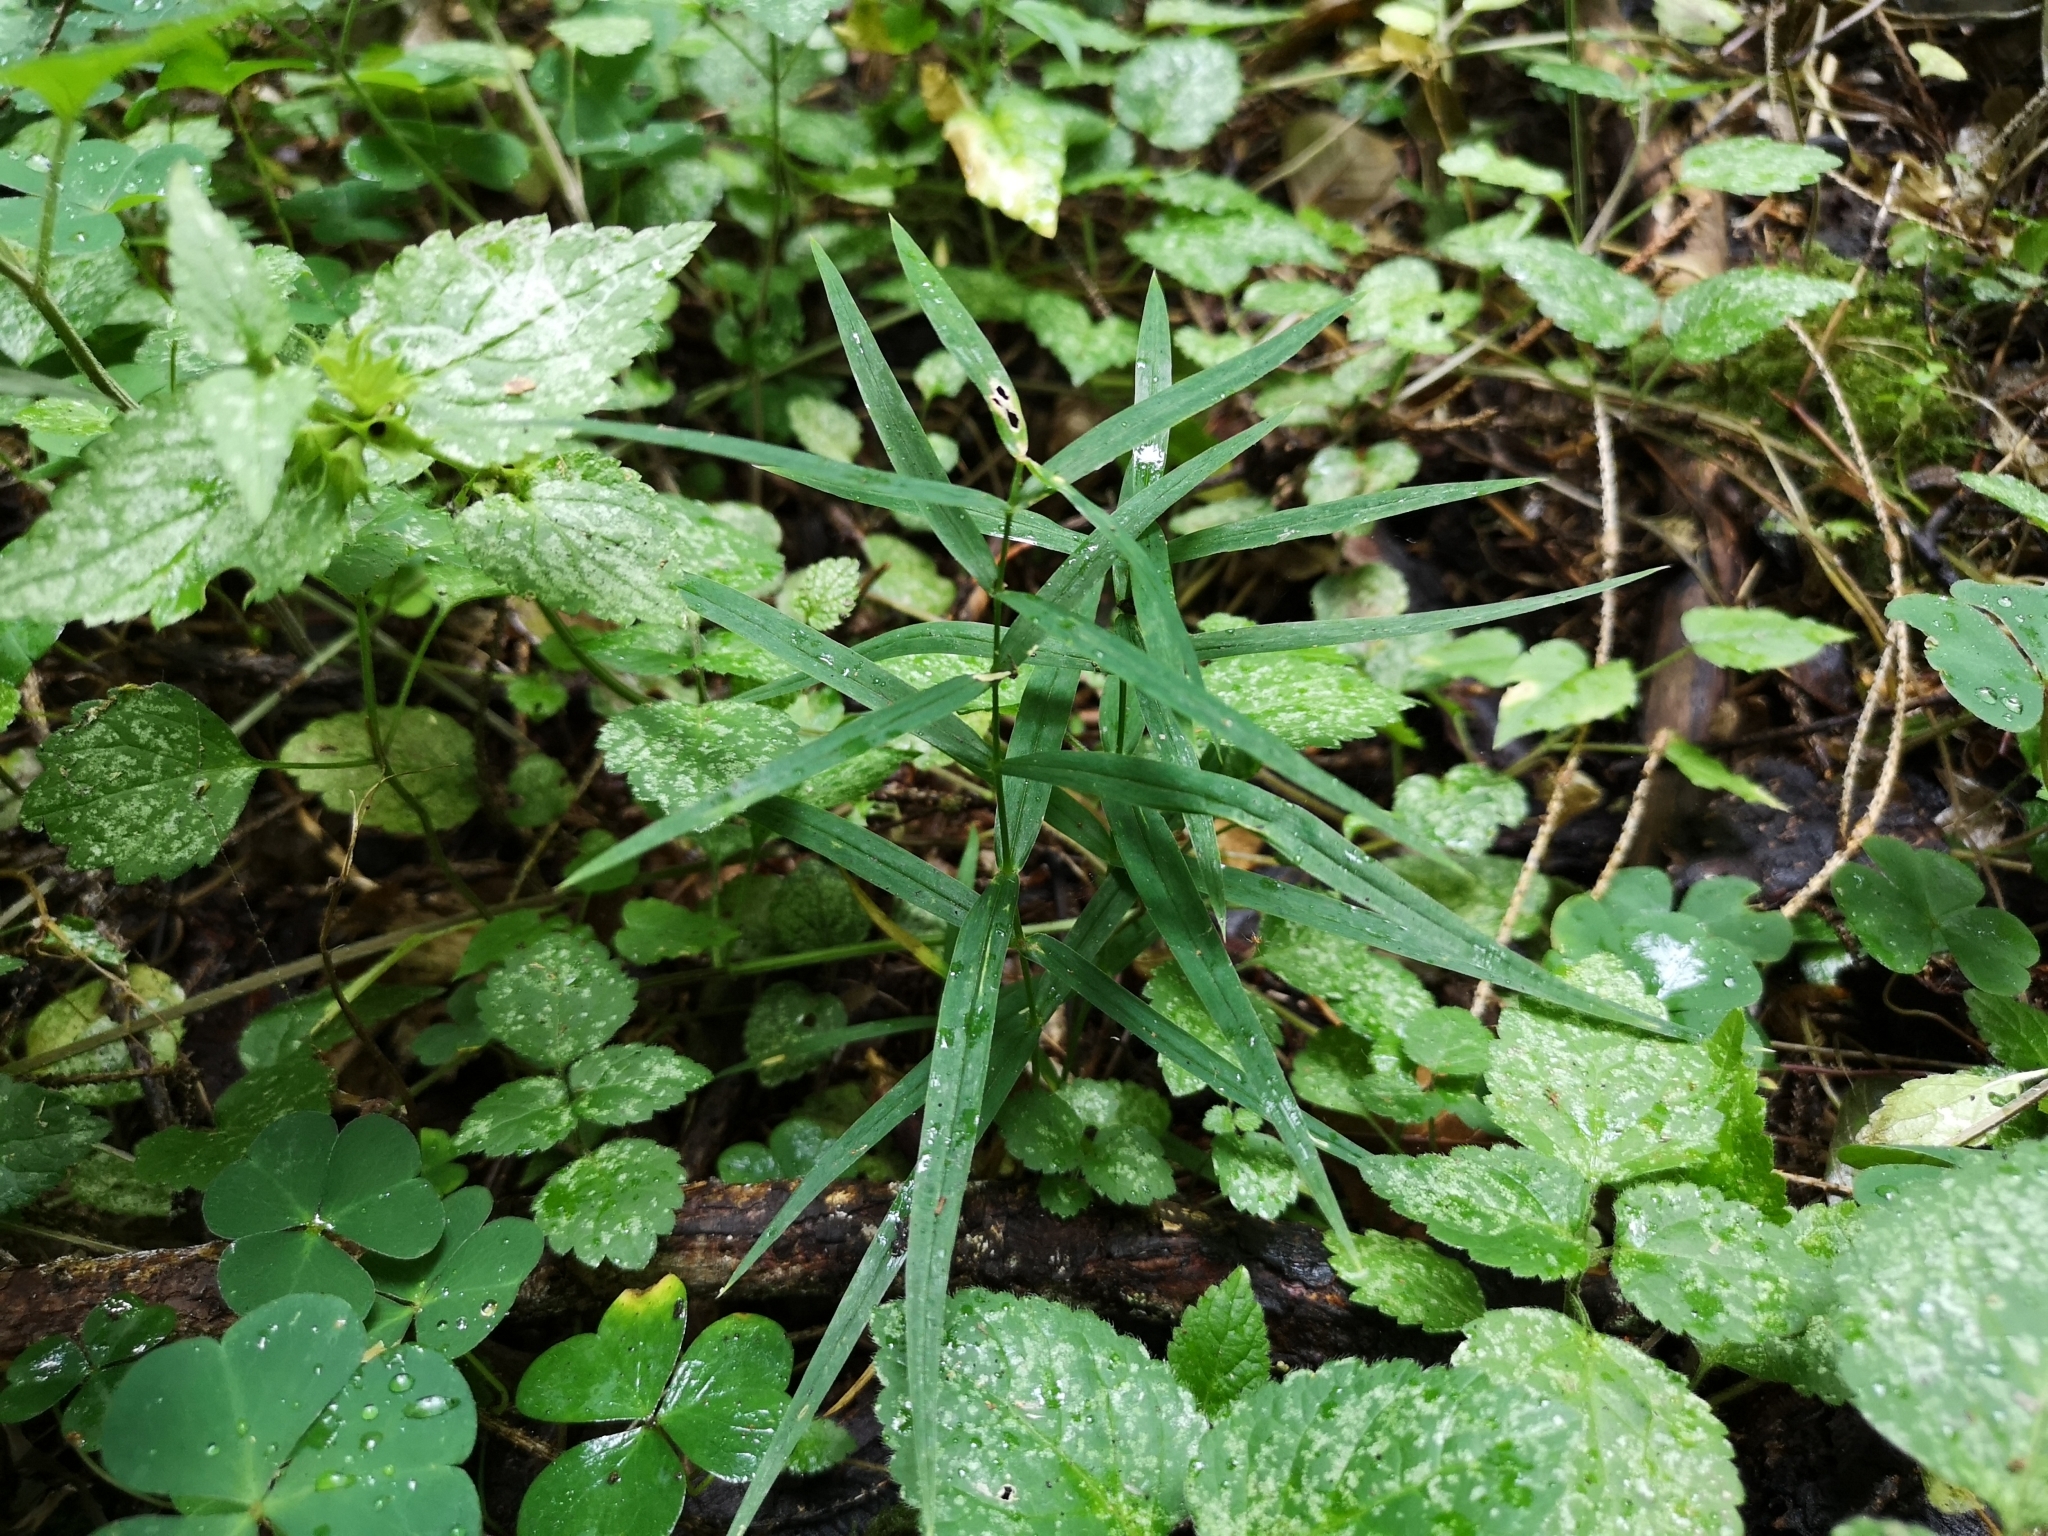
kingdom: Plantae
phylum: Tracheophyta
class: Magnoliopsida
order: Caryophyllales
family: Caryophyllaceae
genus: Rabelera
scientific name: Rabelera holostea
